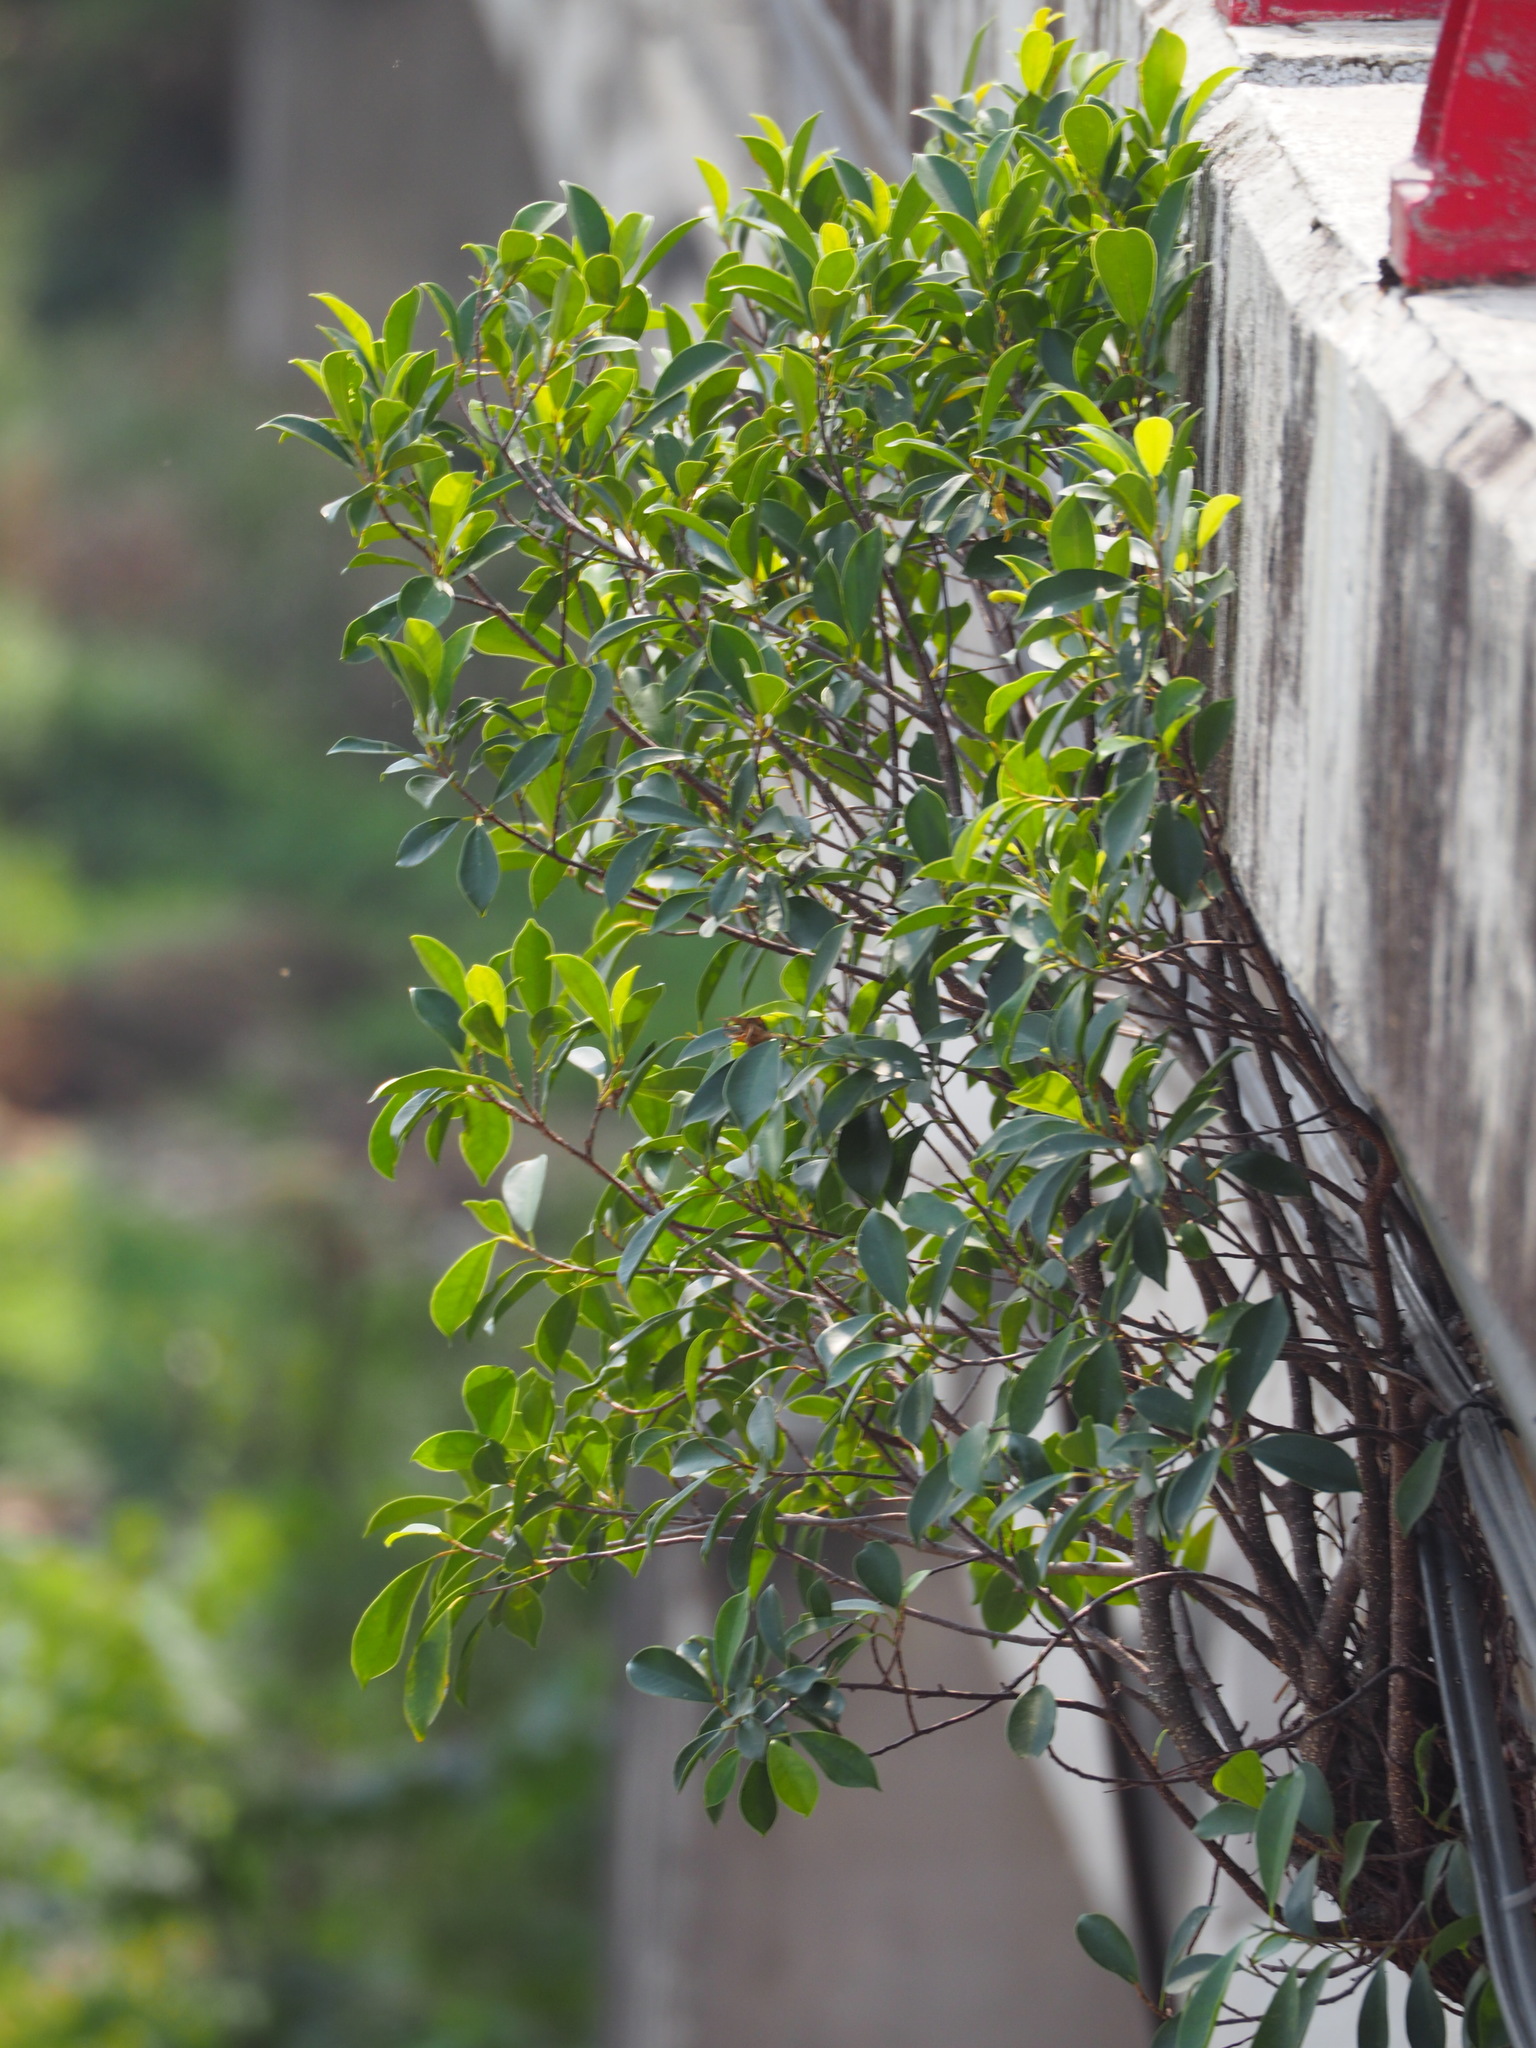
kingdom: Plantae
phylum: Tracheophyta
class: Magnoliopsida
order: Rosales
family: Moraceae
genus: Ficus
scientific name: Ficus microcarpa
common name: Chinese banyan
